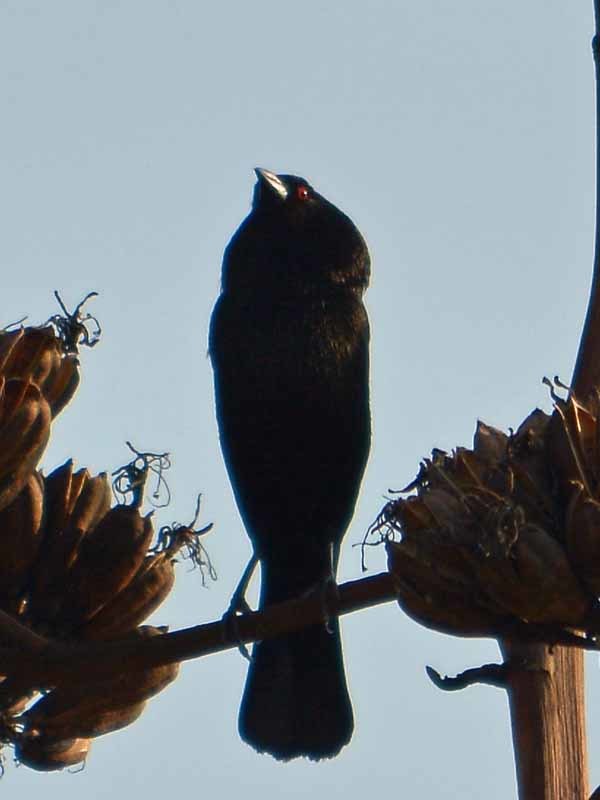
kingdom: Animalia
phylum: Chordata
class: Aves
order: Passeriformes
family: Icteridae
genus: Molothrus
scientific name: Molothrus aeneus
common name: Bronzed cowbird
